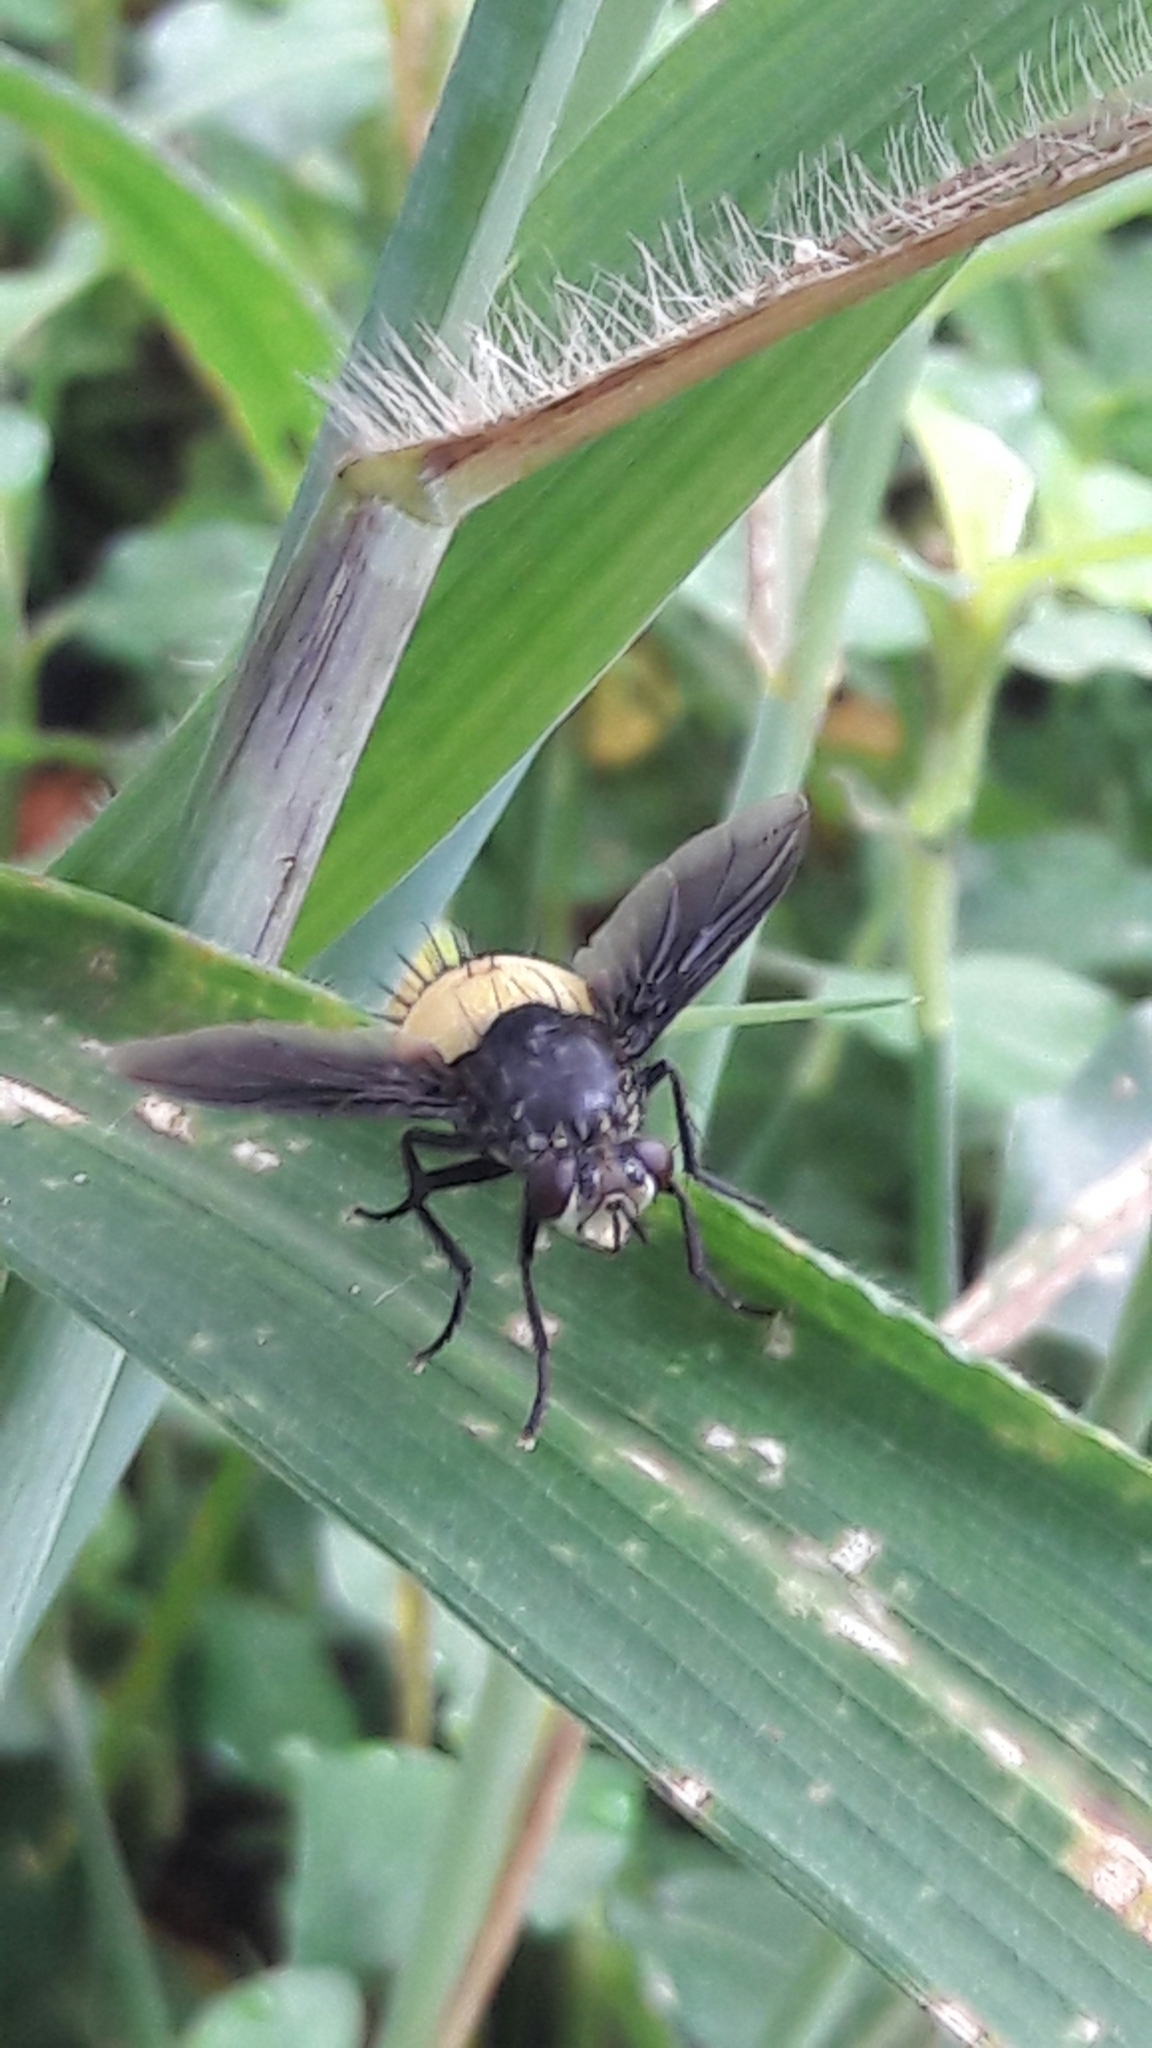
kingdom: Animalia
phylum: Arthropoda
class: Insecta
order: Diptera
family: Tachinidae
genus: Xanthozona
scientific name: Xanthozona melanopyga
